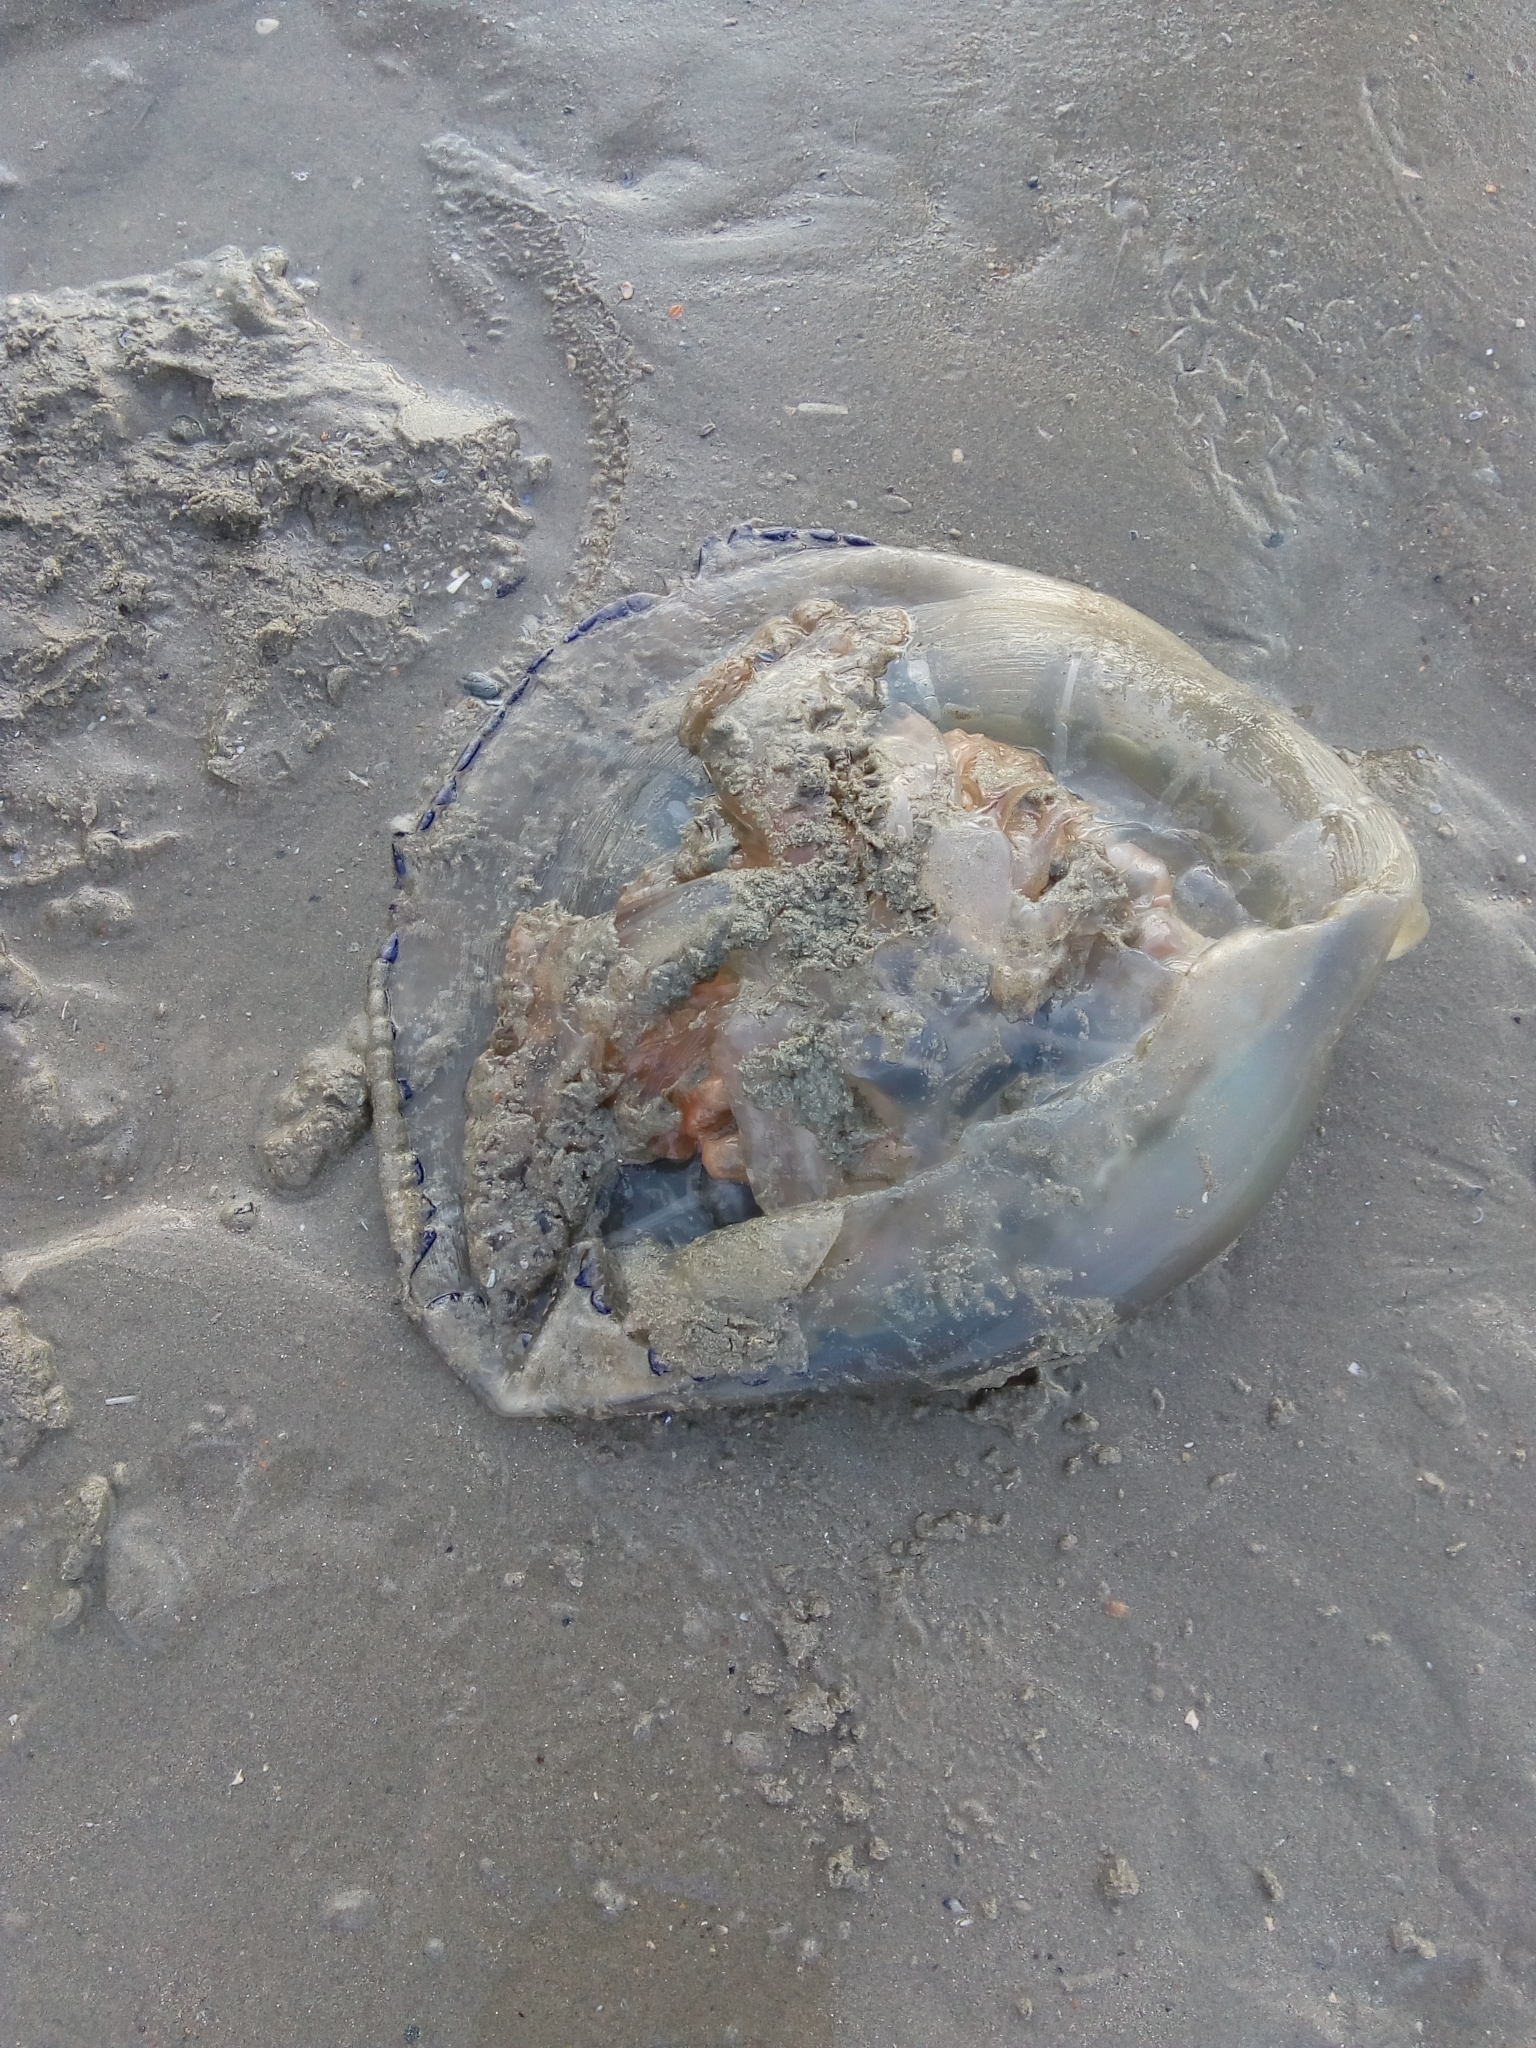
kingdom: Animalia
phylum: Cnidaria
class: Scyphozoa
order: Rhizostomeae
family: Rhizostomatidae
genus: Rhizostoma
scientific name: Rhizostoma octopus
